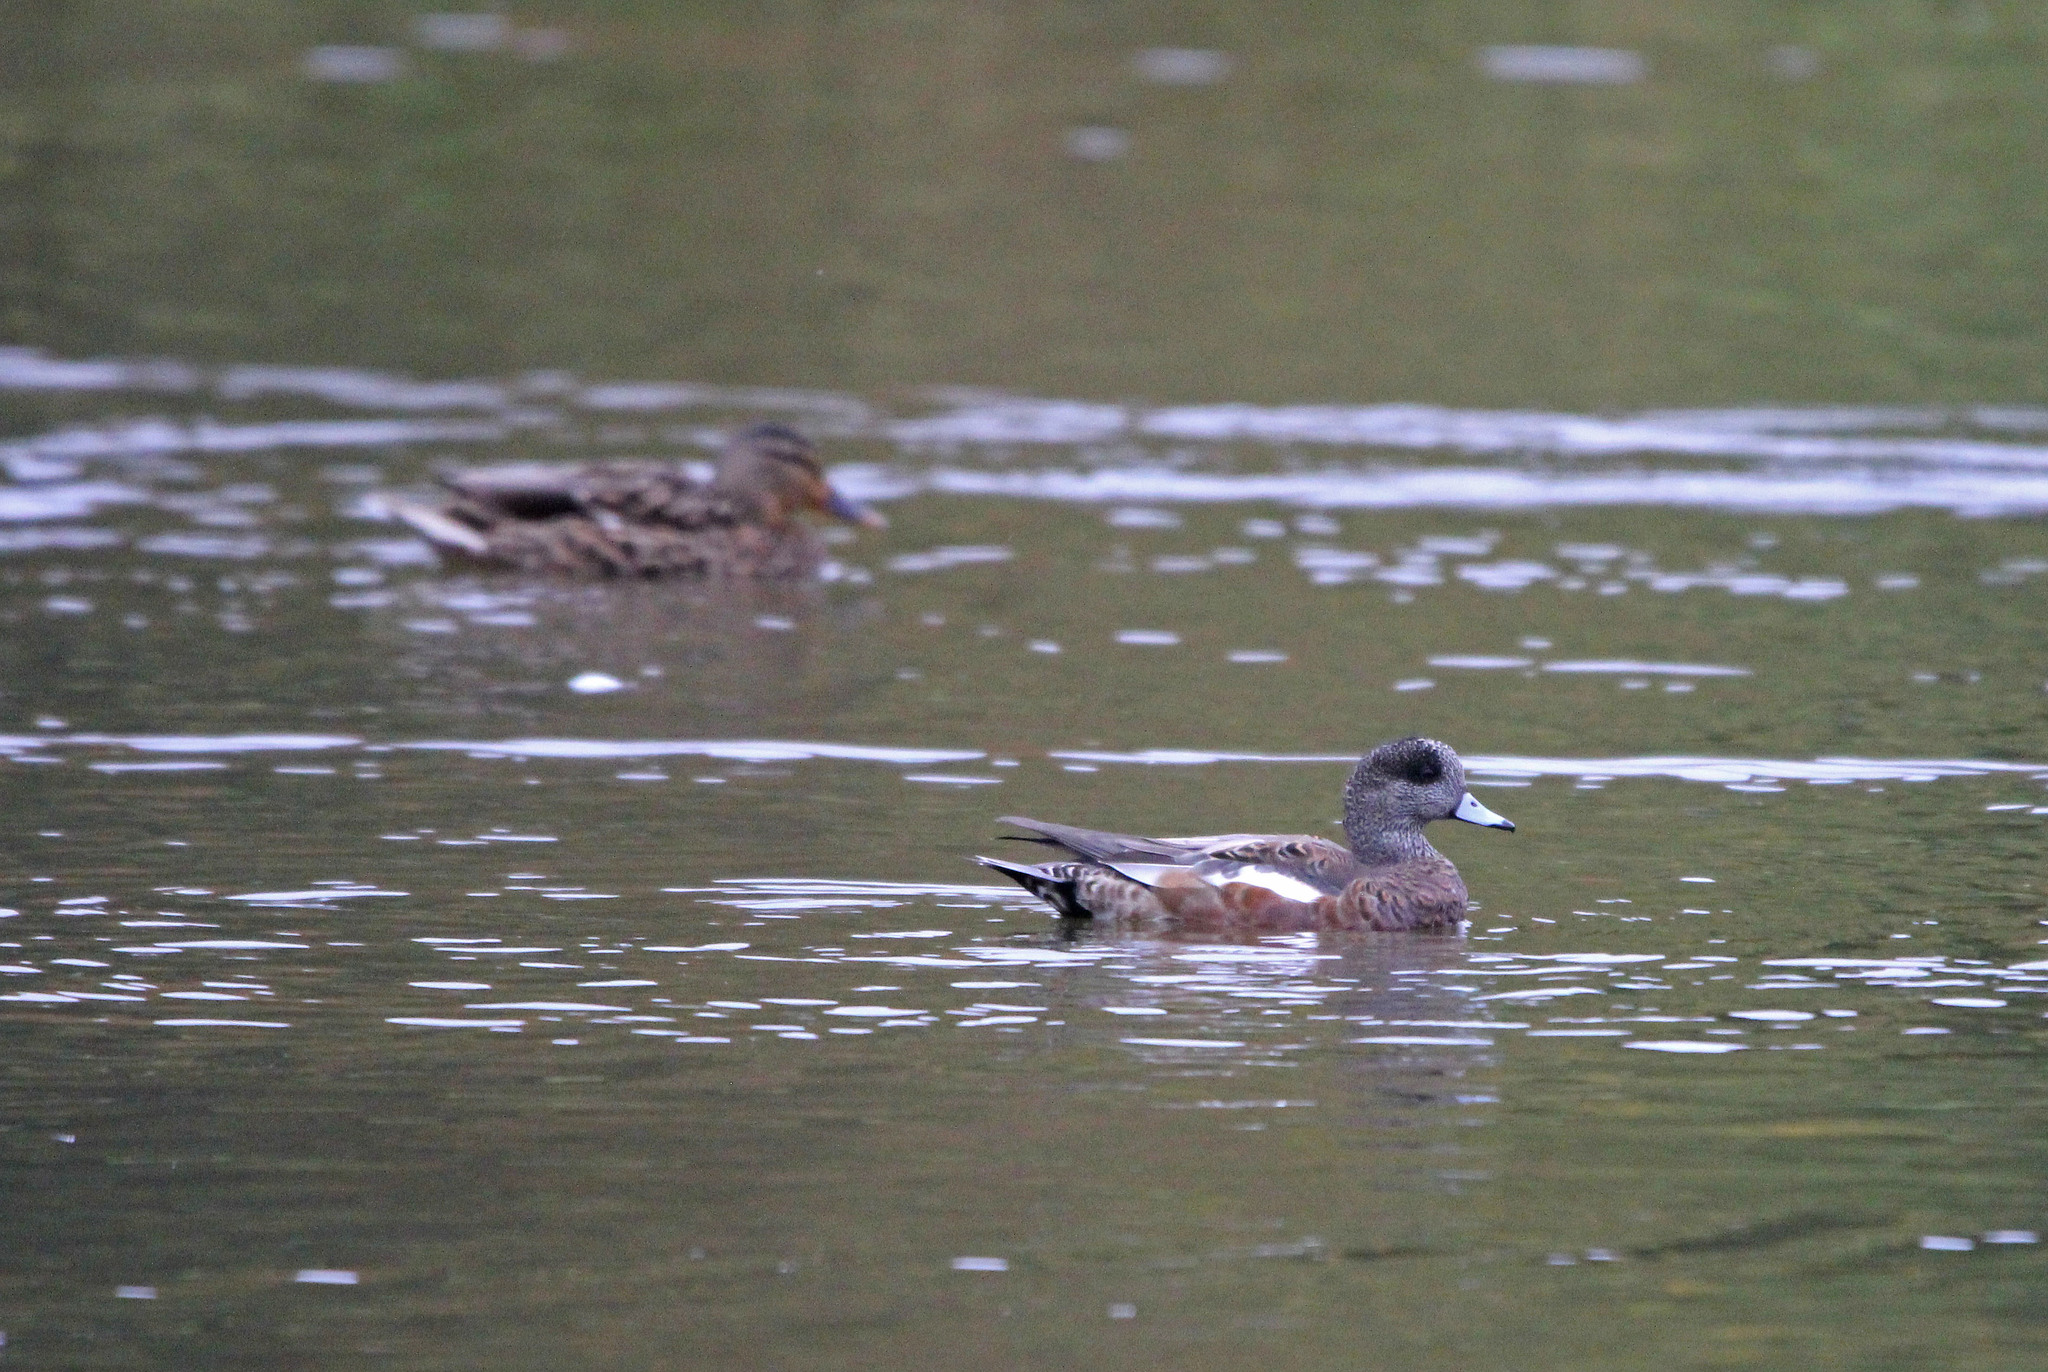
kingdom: Animalia
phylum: Chordata
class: Aves
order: Anseriformes
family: Anatidae
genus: Mareca
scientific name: Mareca americana
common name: American wigeon
